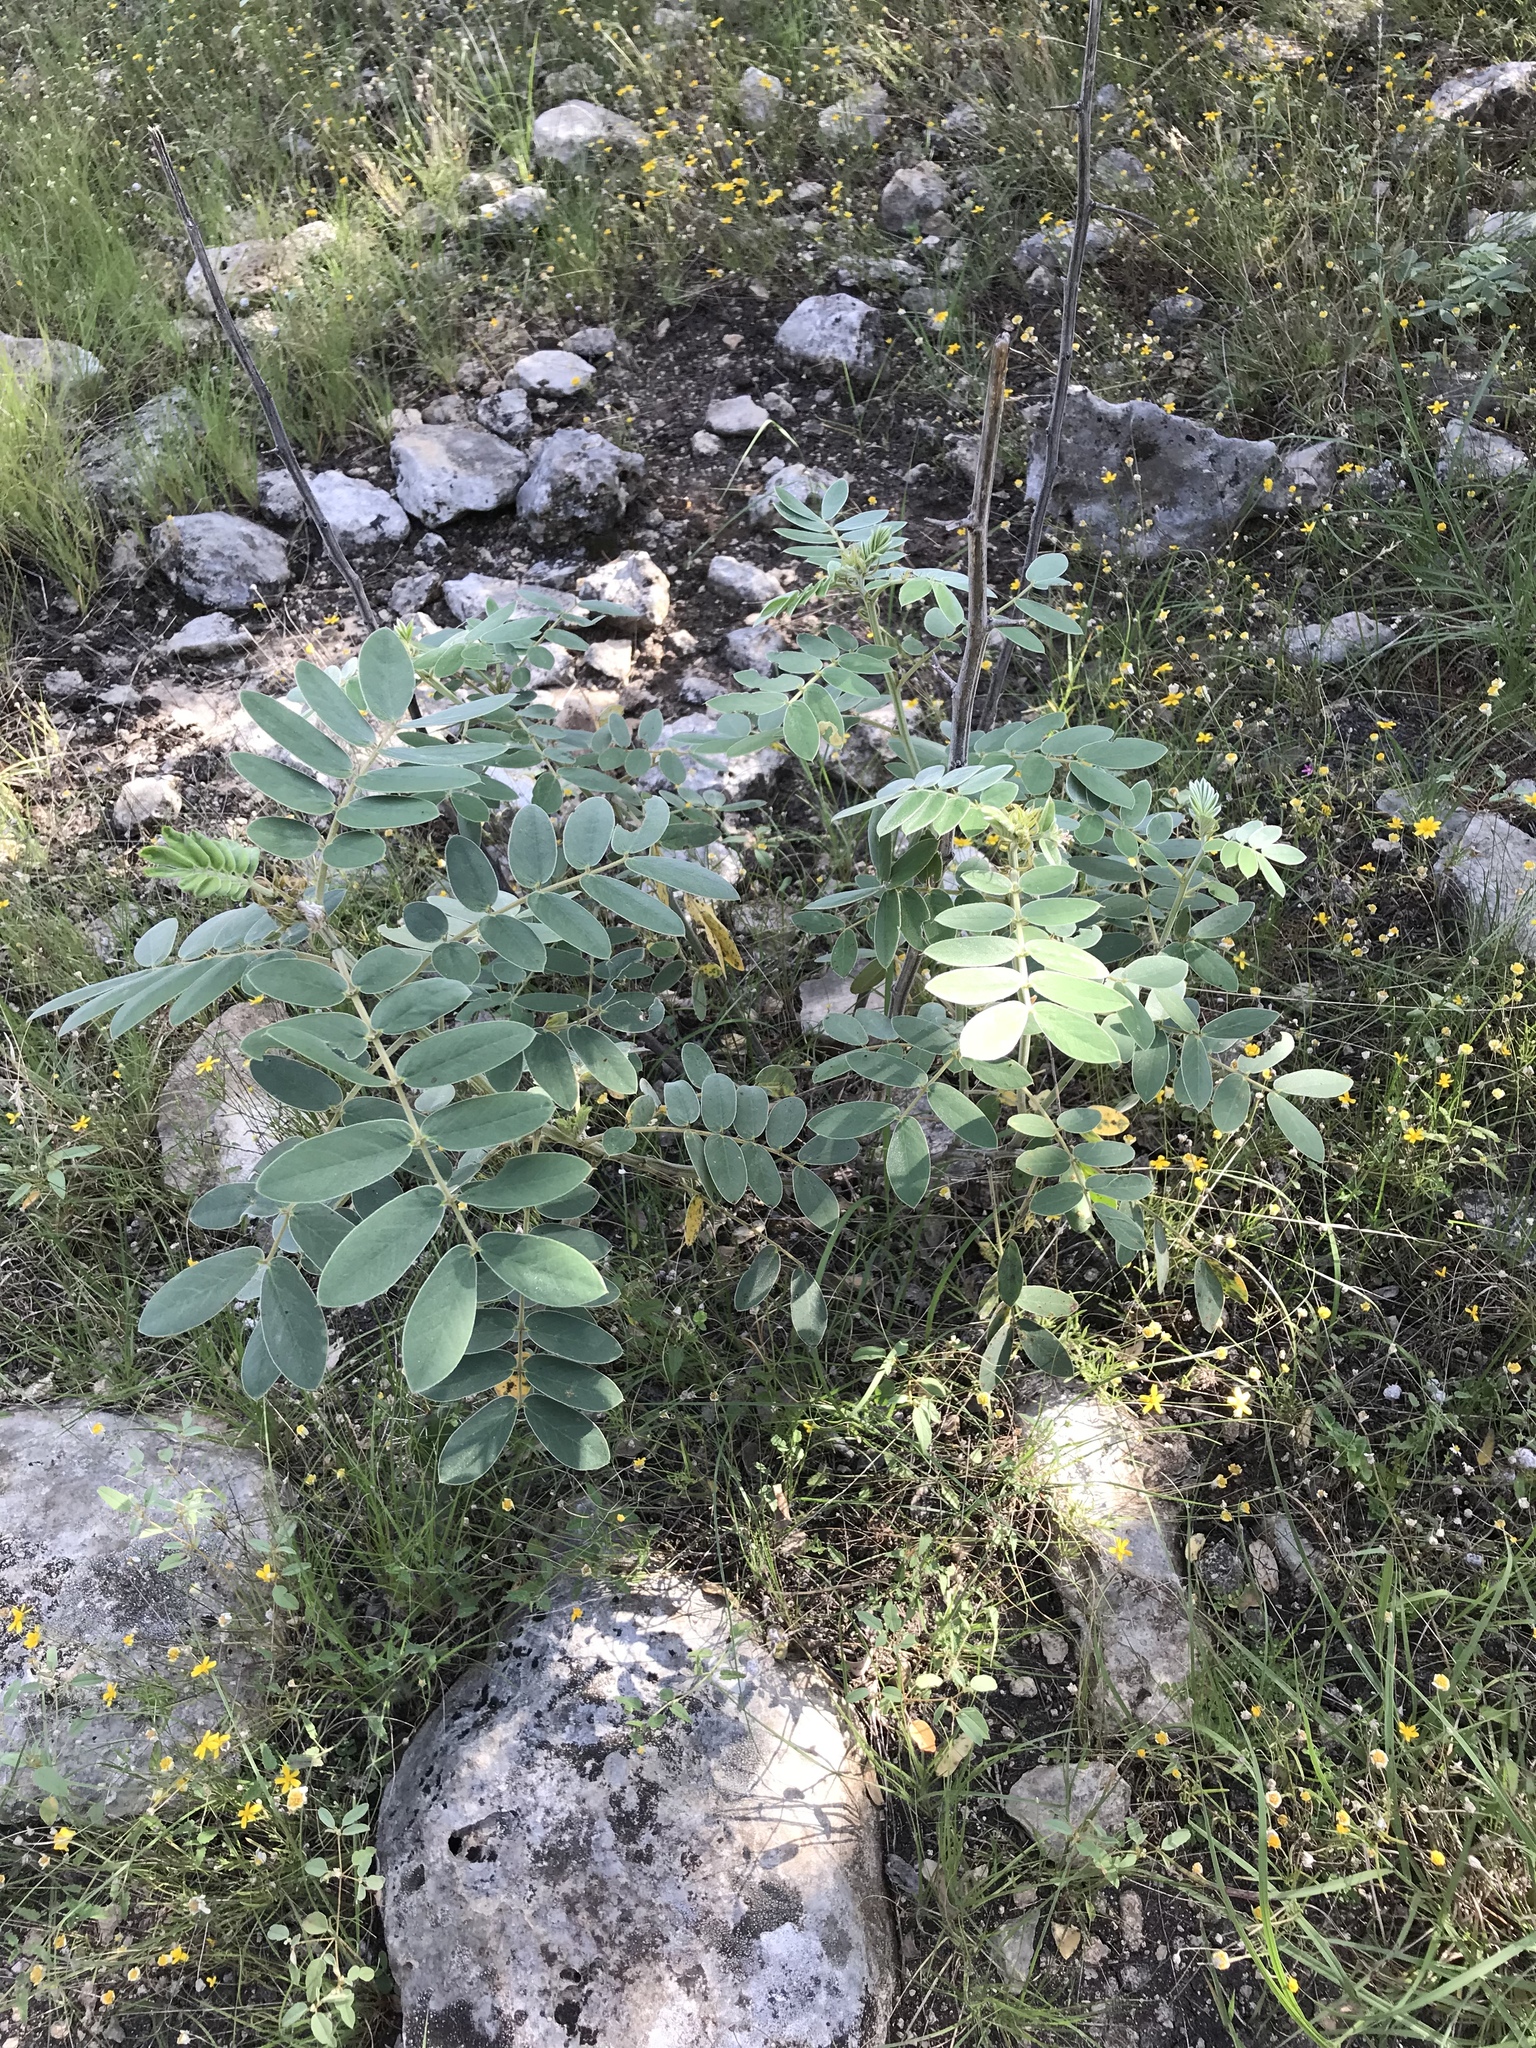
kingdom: Plantae
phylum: Tracheophyta
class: Magnoliopsida
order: Fabales
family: Fabaceae
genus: Senna
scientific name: Senna lindheimeriana
